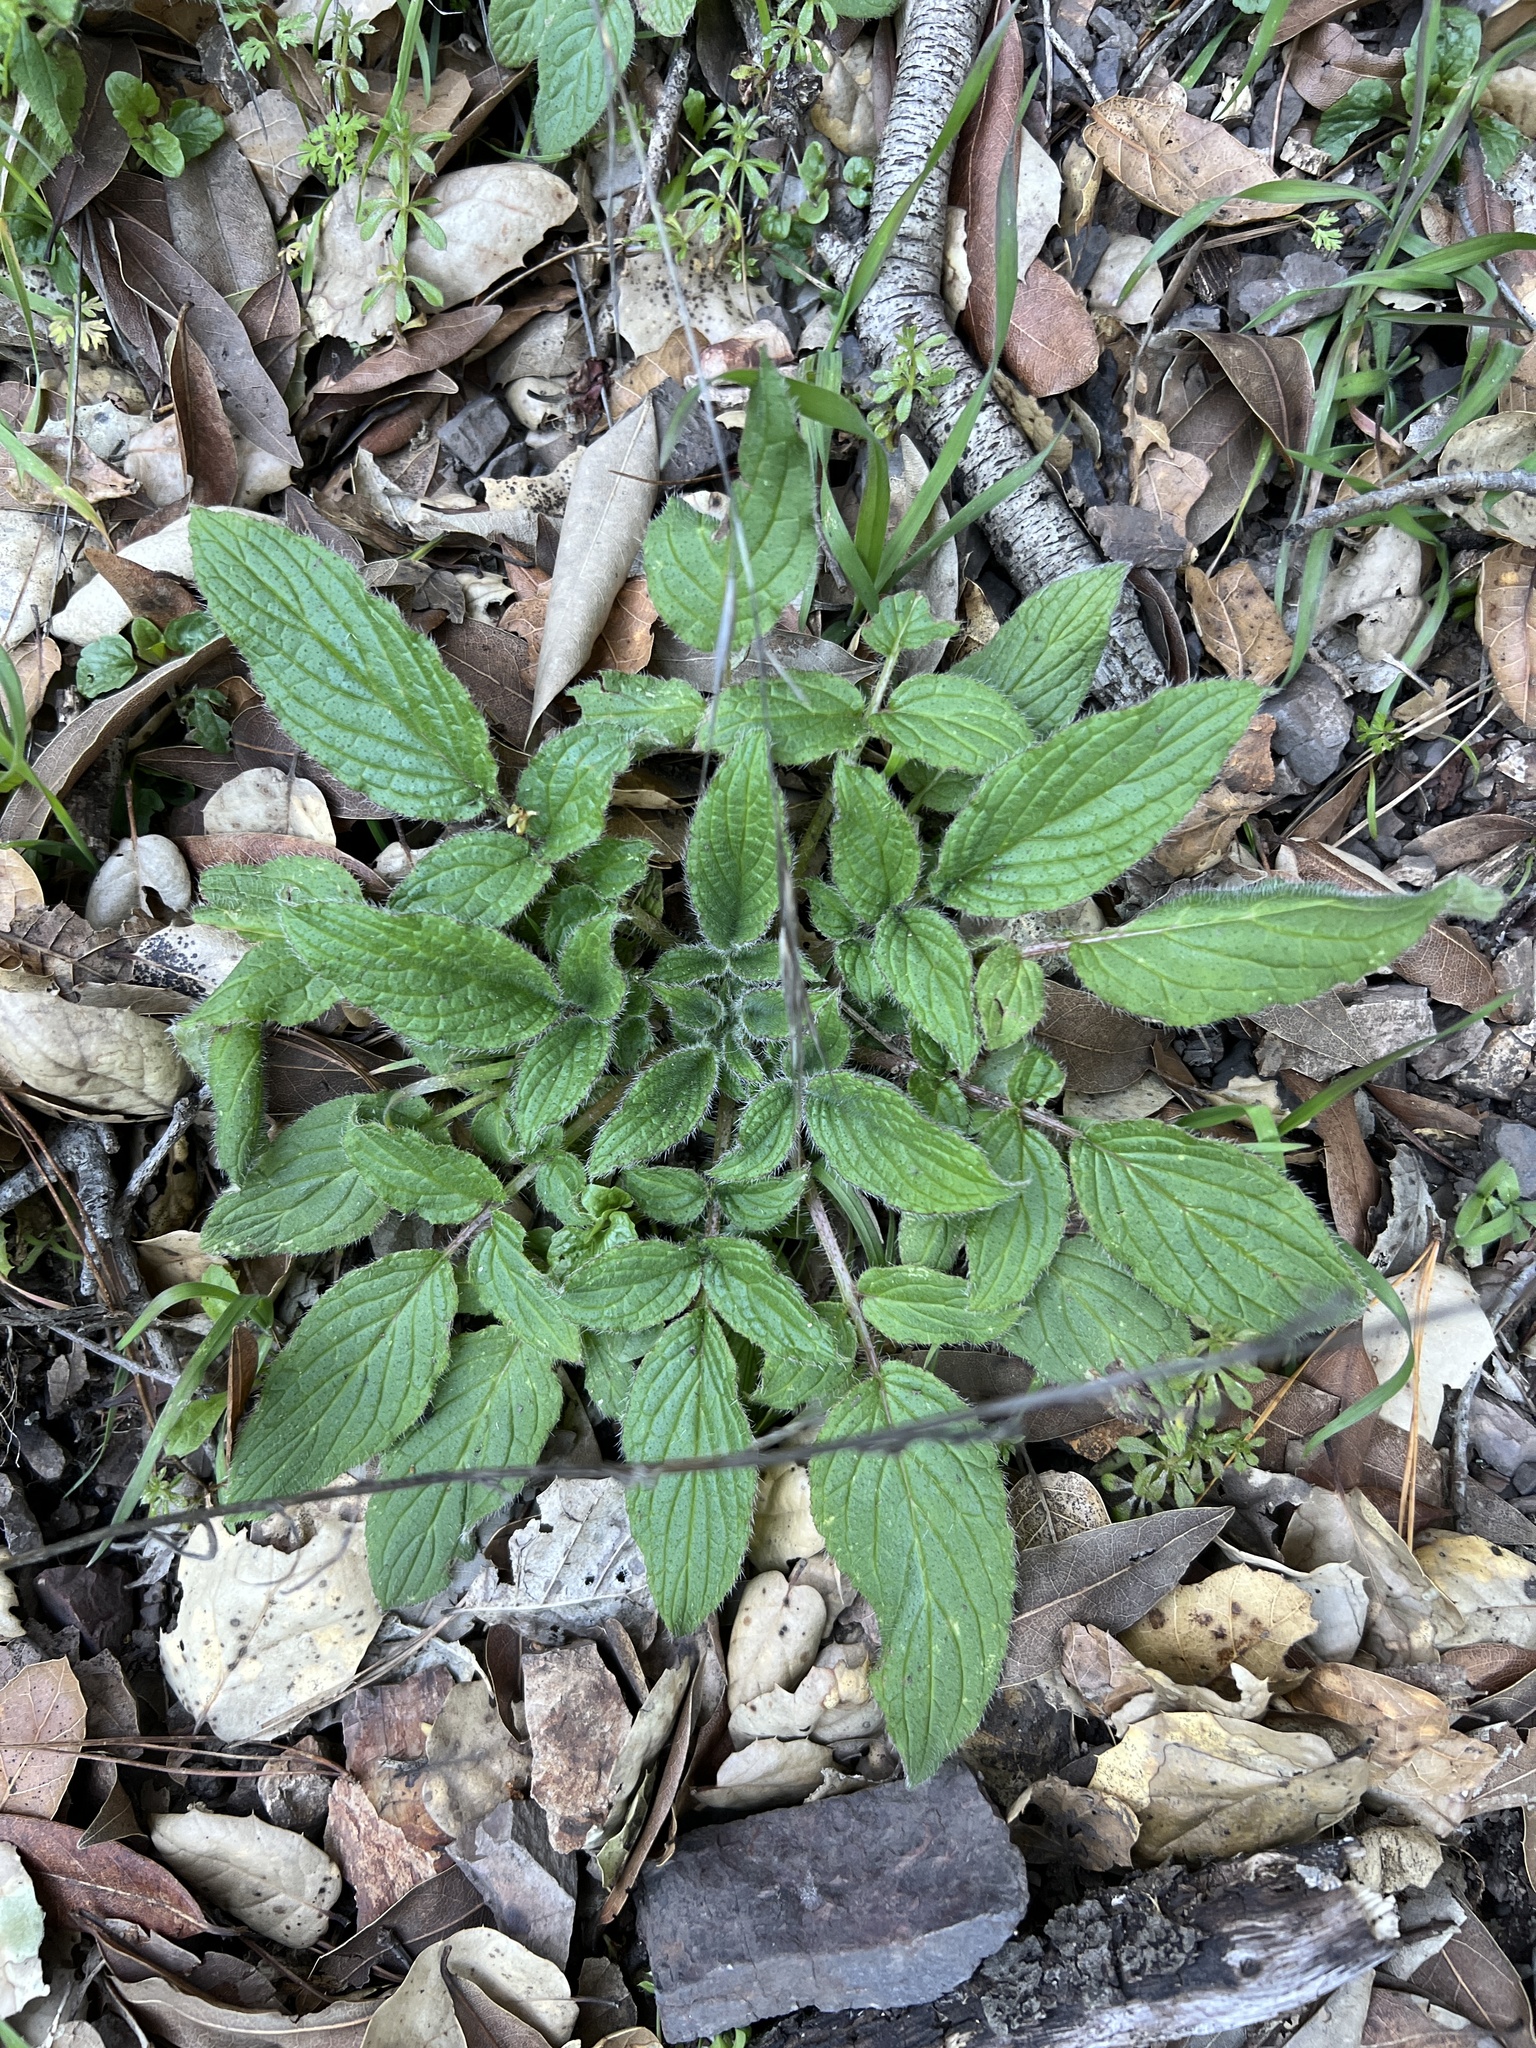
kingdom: Plantae
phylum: Tracheophyta
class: Magnoliopsida
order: Boraginales
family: Hydrophyllaceae
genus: Phacelia
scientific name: Phacelia californica
